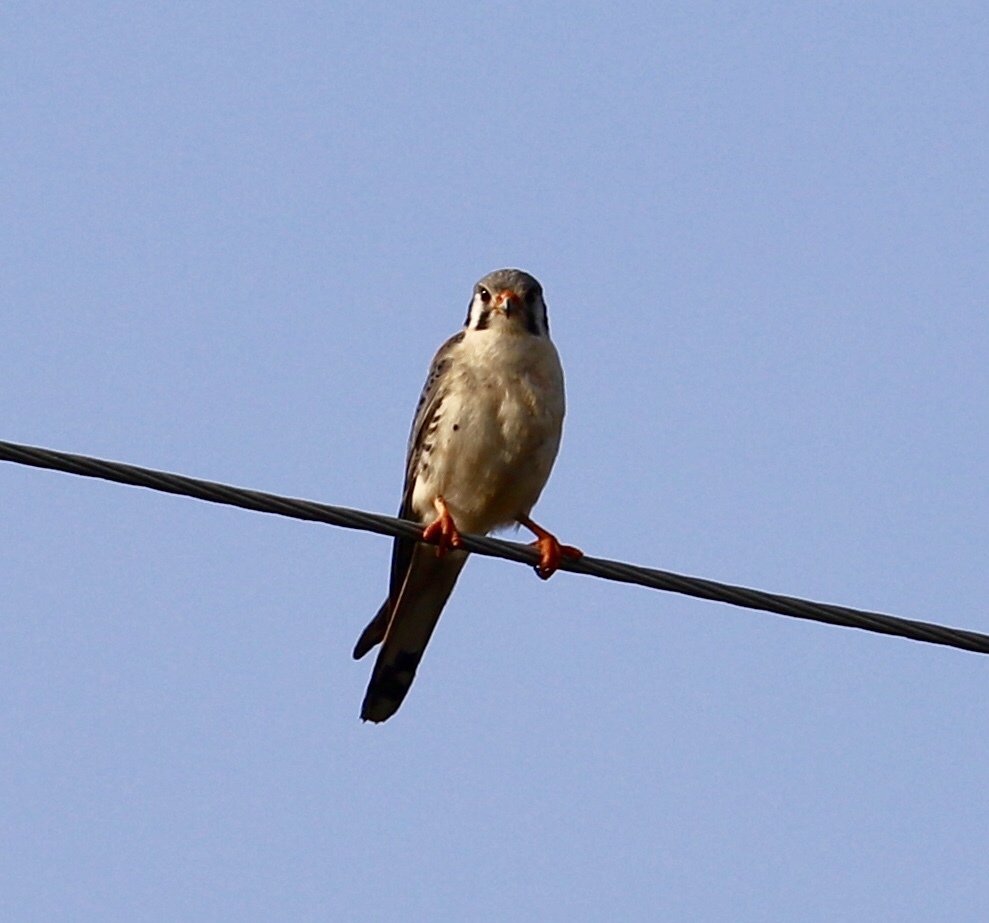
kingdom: Animalia
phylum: Chordata
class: Aves
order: Falconiformes
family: Falconidae
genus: Falco
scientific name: Falco sparverius
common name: American kestrel
